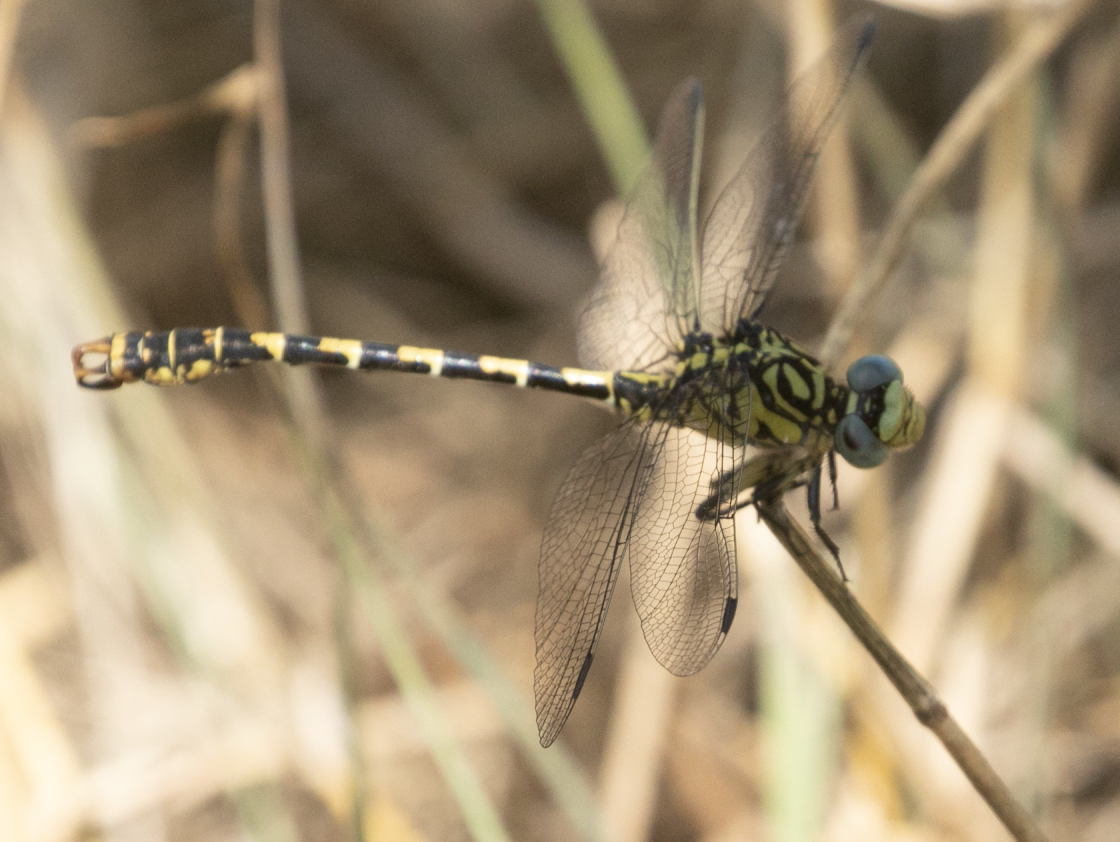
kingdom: Animalia
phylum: Arthropoda
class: Insecta
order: Odonata
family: Gomphidae
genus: Onychogomphus
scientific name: Onychogomphus forcipatus
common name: Small pincertail
